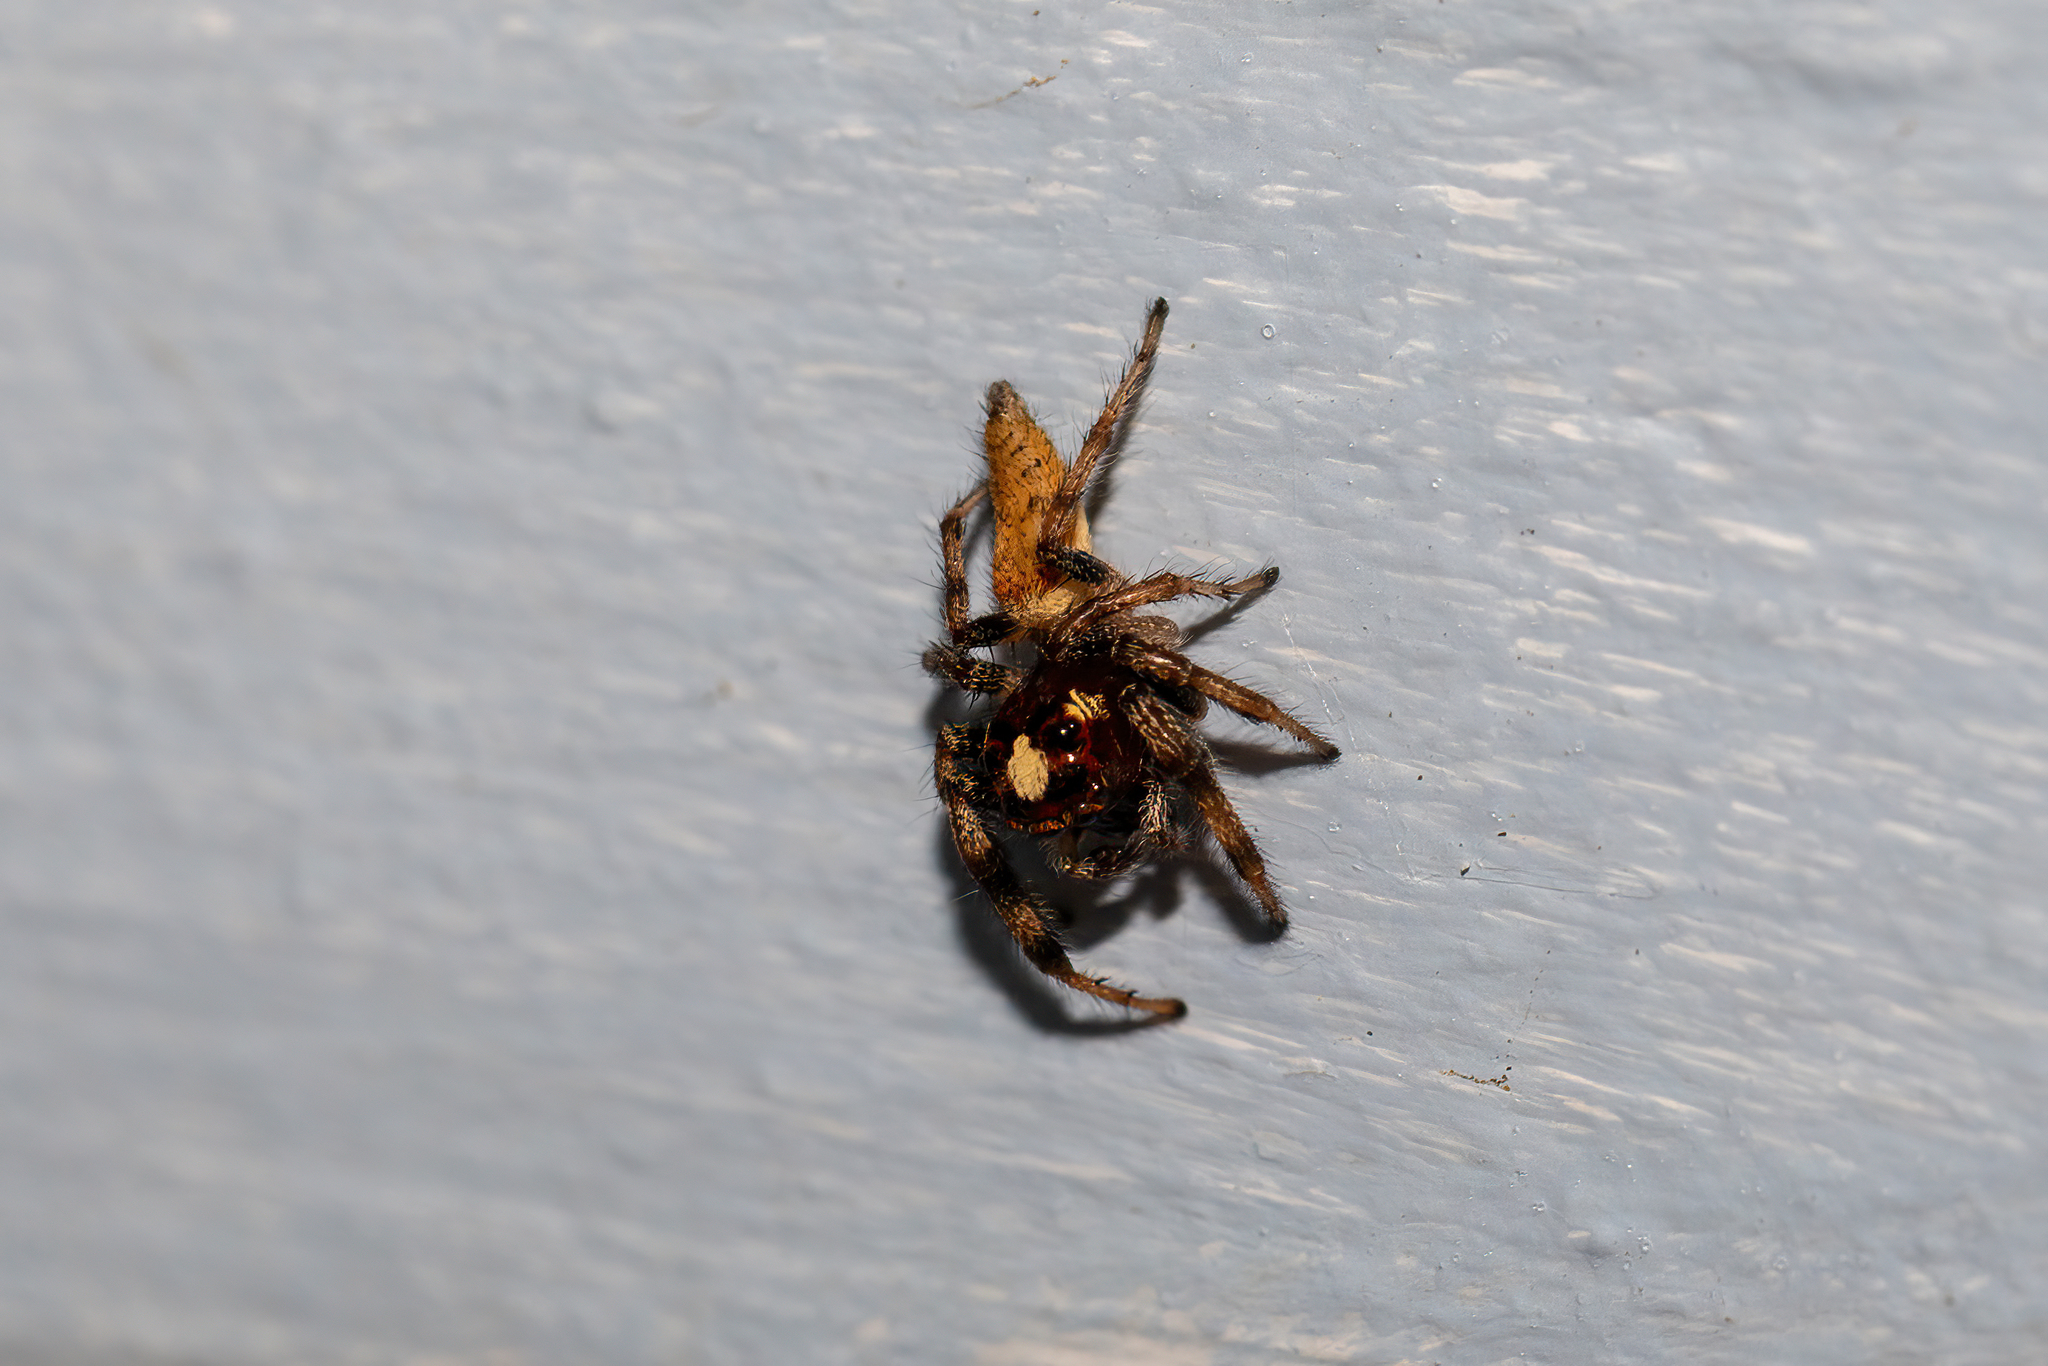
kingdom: Animalia
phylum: Arthropoda
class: Arachnida
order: Araneae
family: Salticidae
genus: Colonus
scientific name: Colonus hesperus
